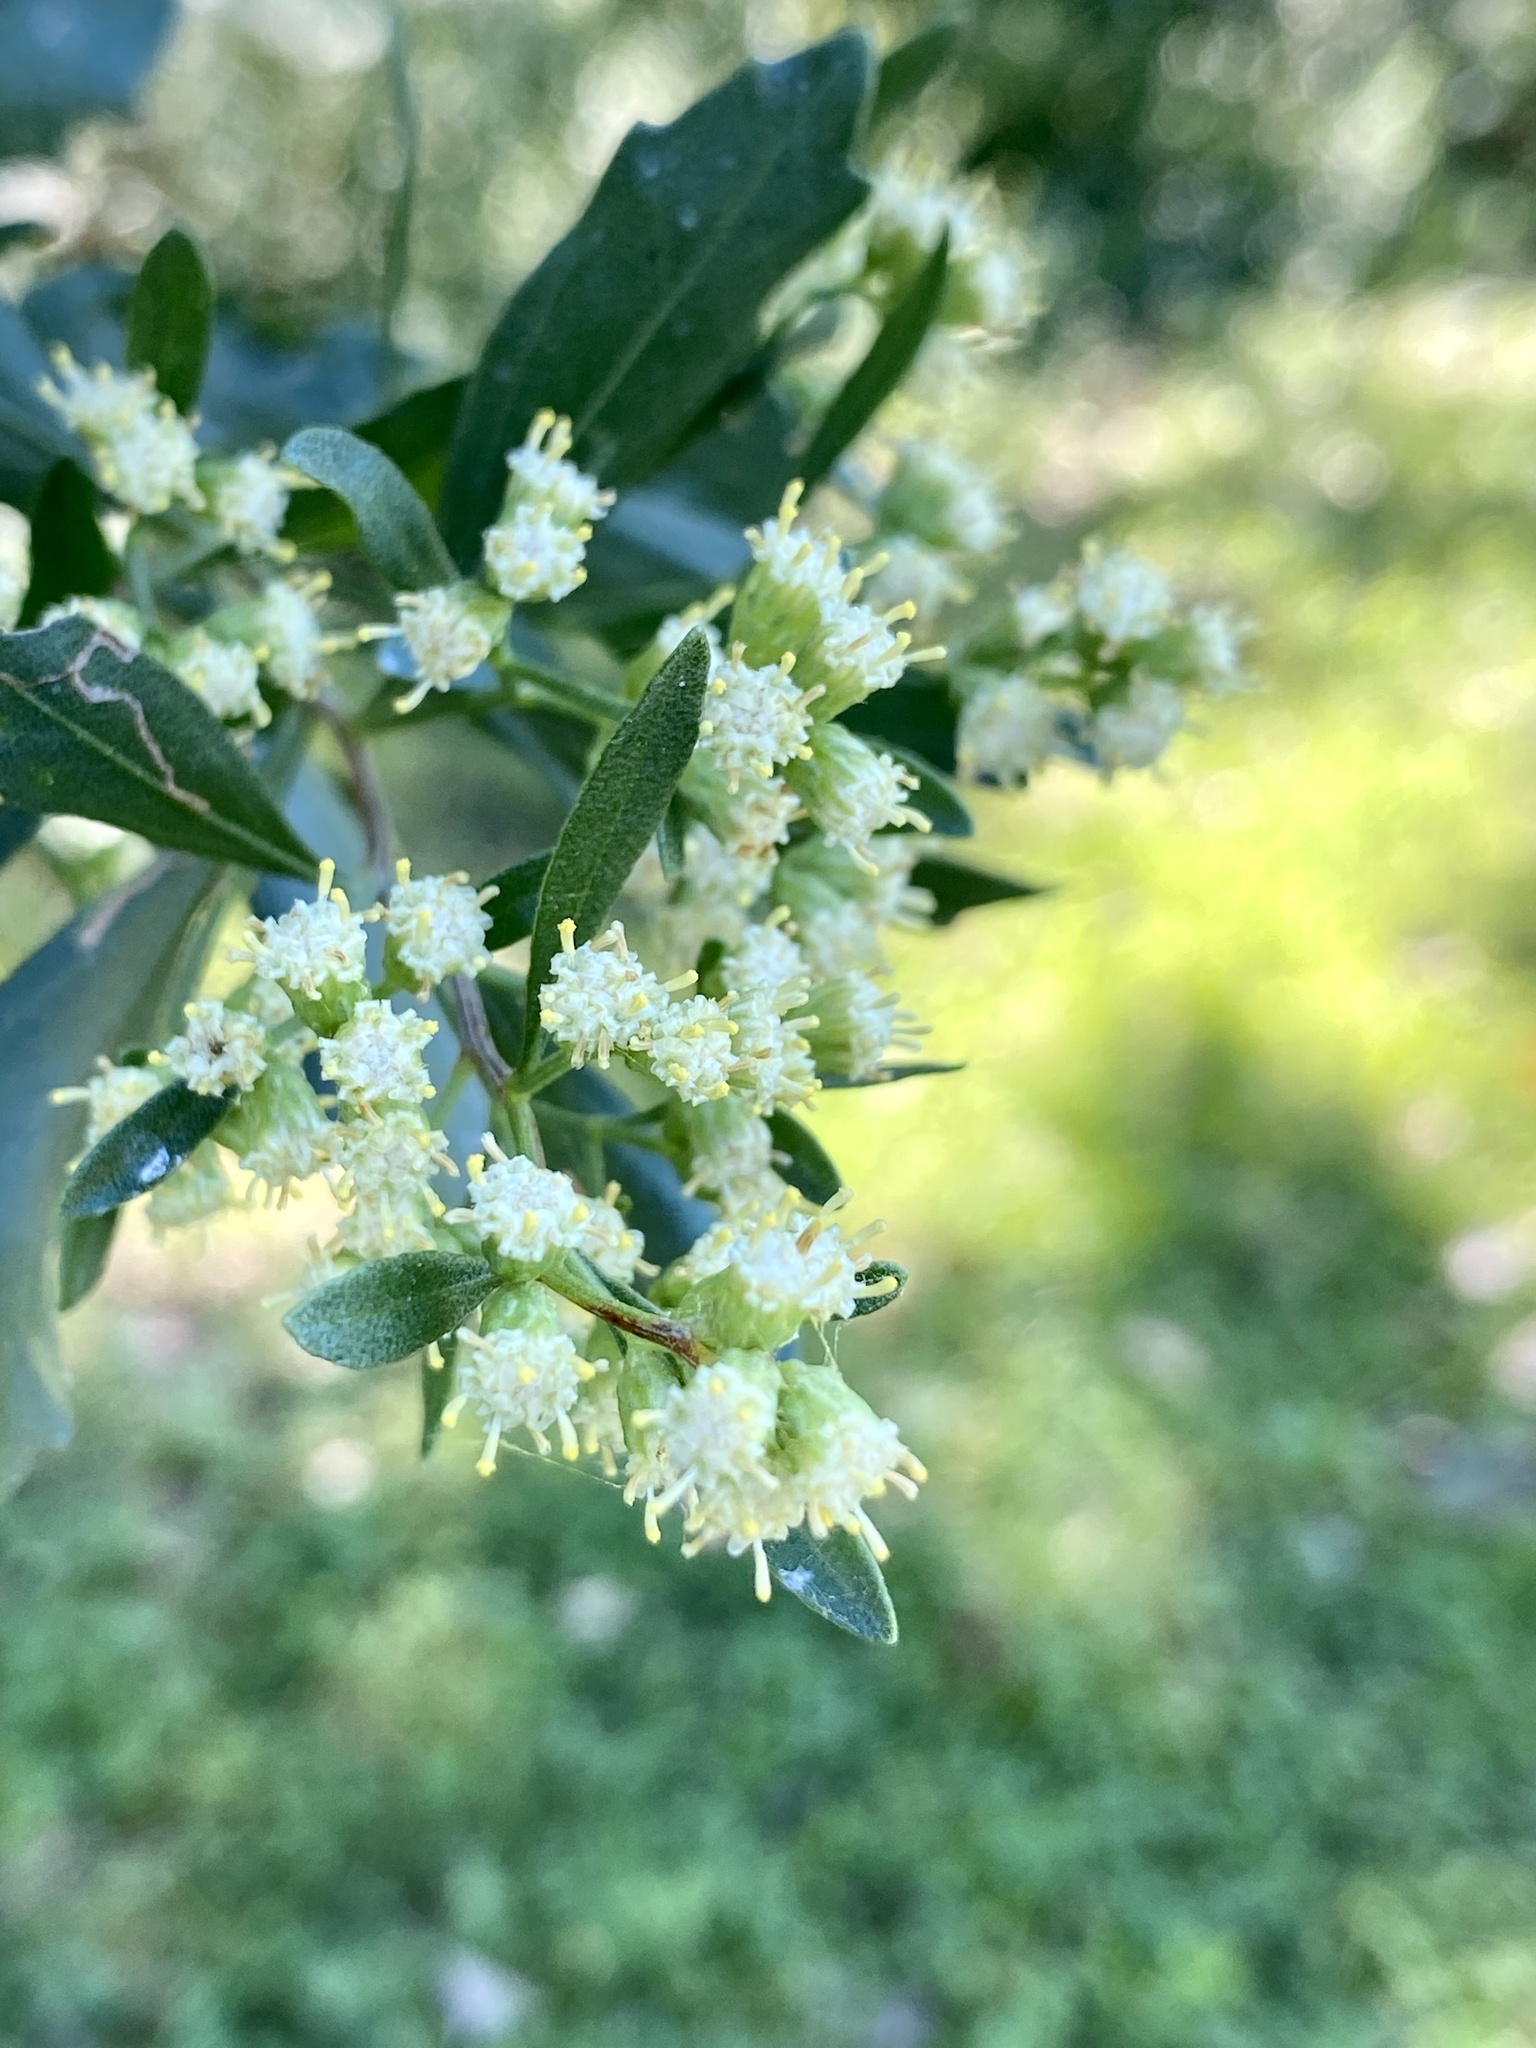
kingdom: Plantae
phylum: Tracheophyta
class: Magnoliopsida
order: Asterales
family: Asteraceae
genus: Baccharis
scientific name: Baccharis halimifolia
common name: Eastern baccharis
